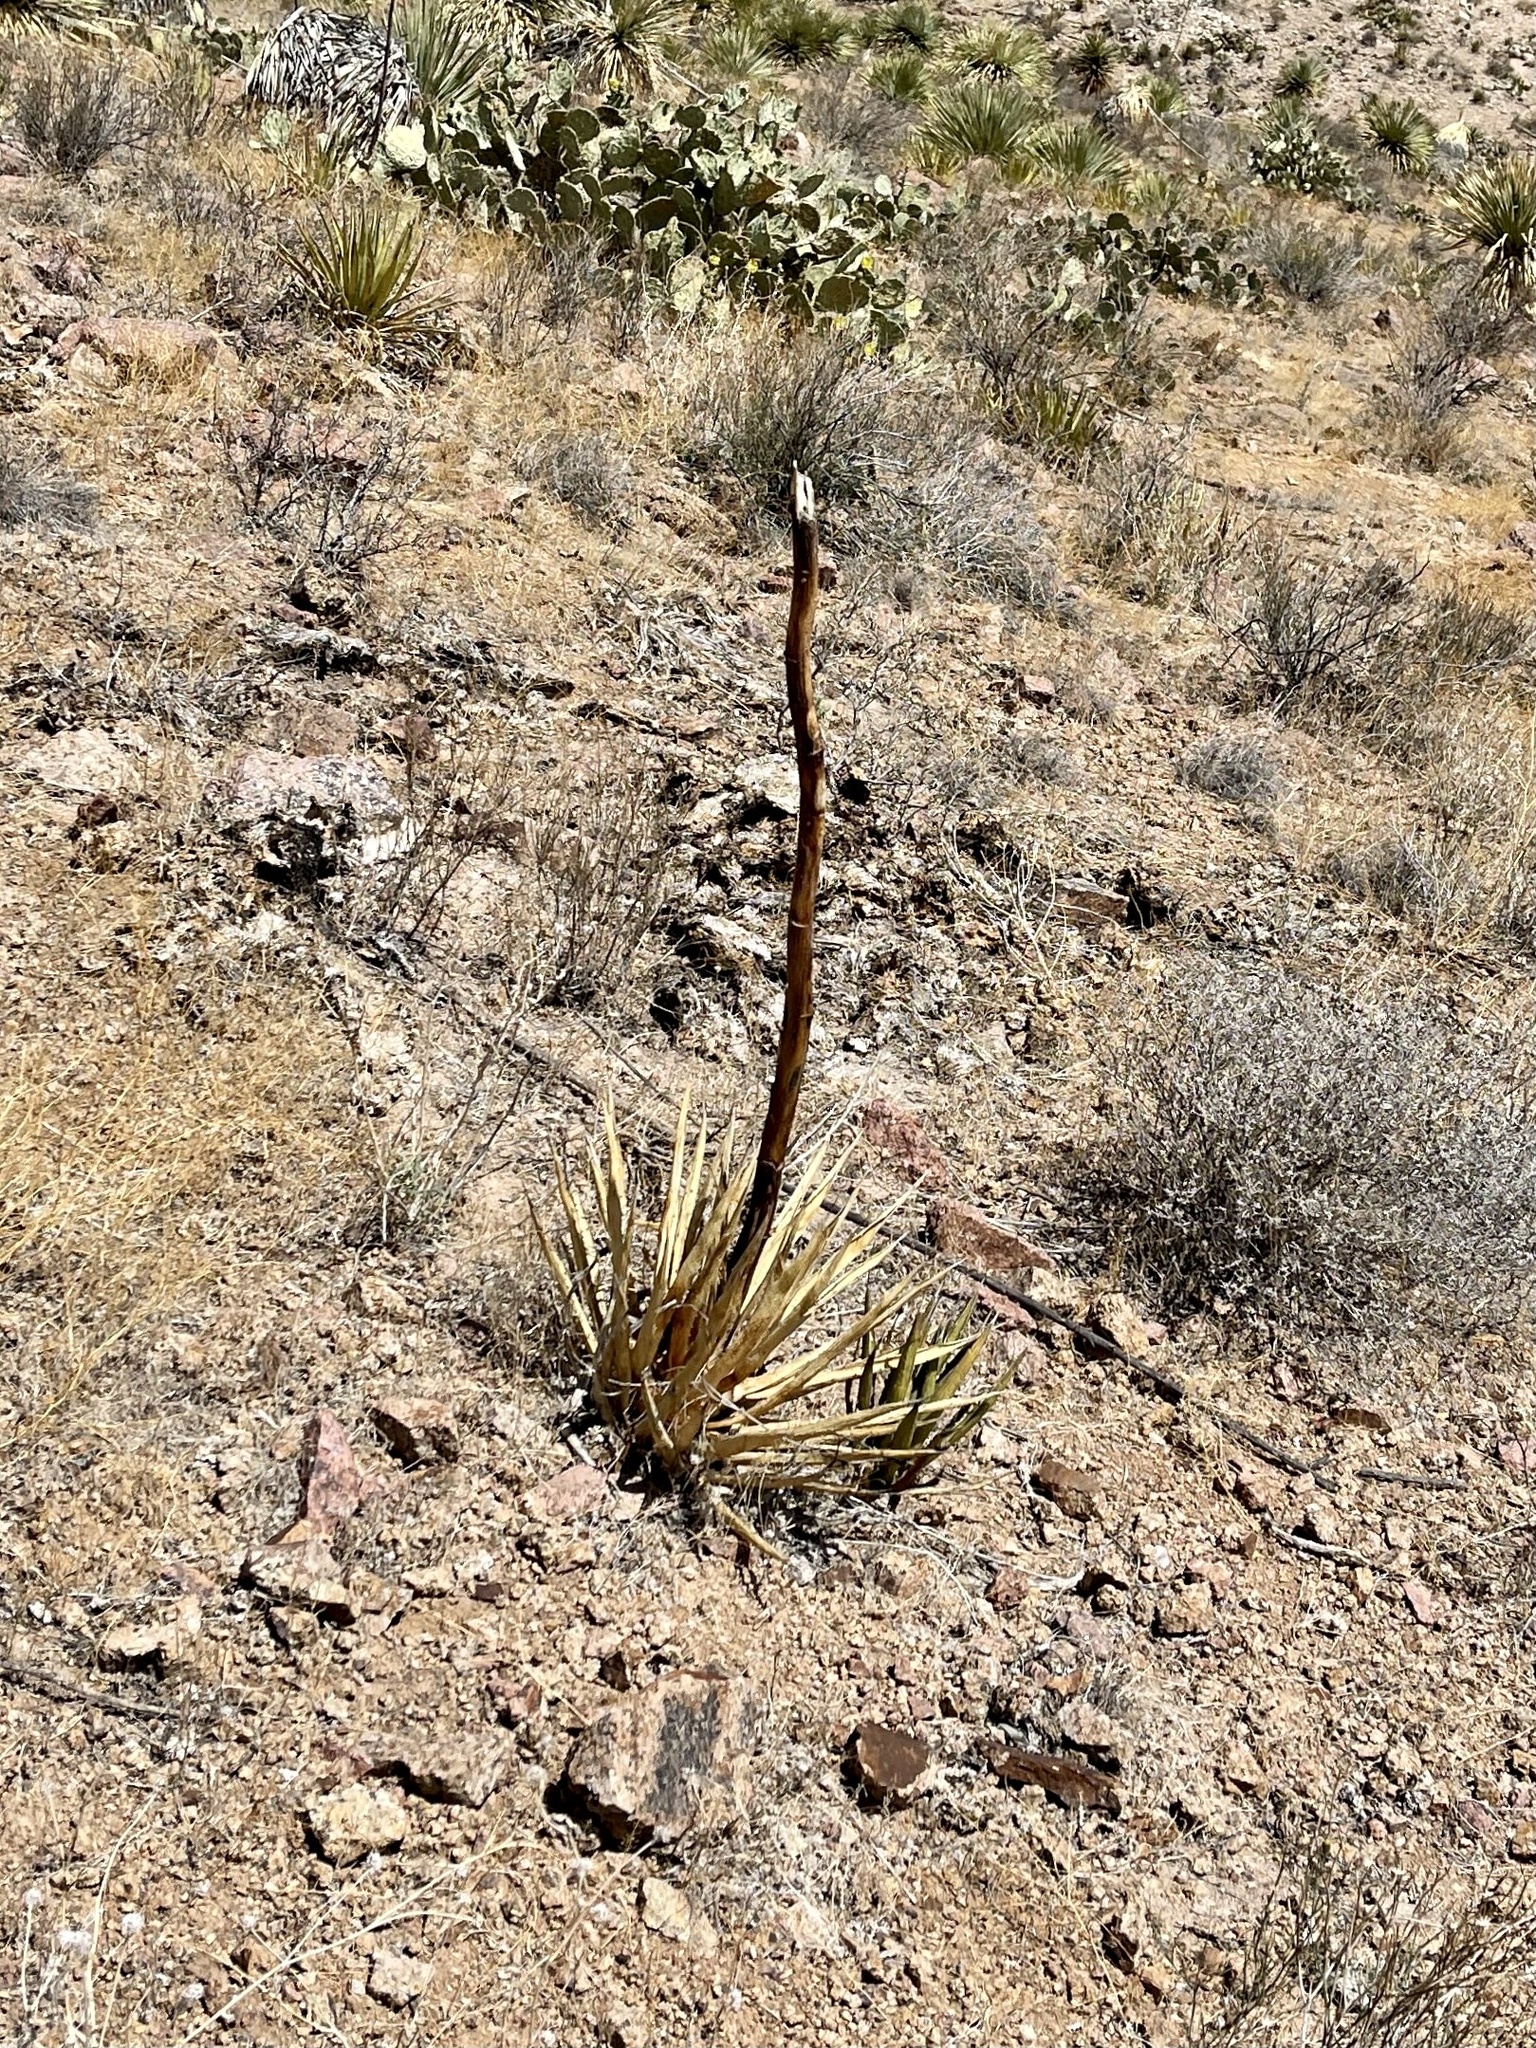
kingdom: Plantae
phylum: Tracheophyta
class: Liliopsida
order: Asparagales
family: Asparagaceae
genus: Agave
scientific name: Agave lechuguilla
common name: Lecheguilla agave
